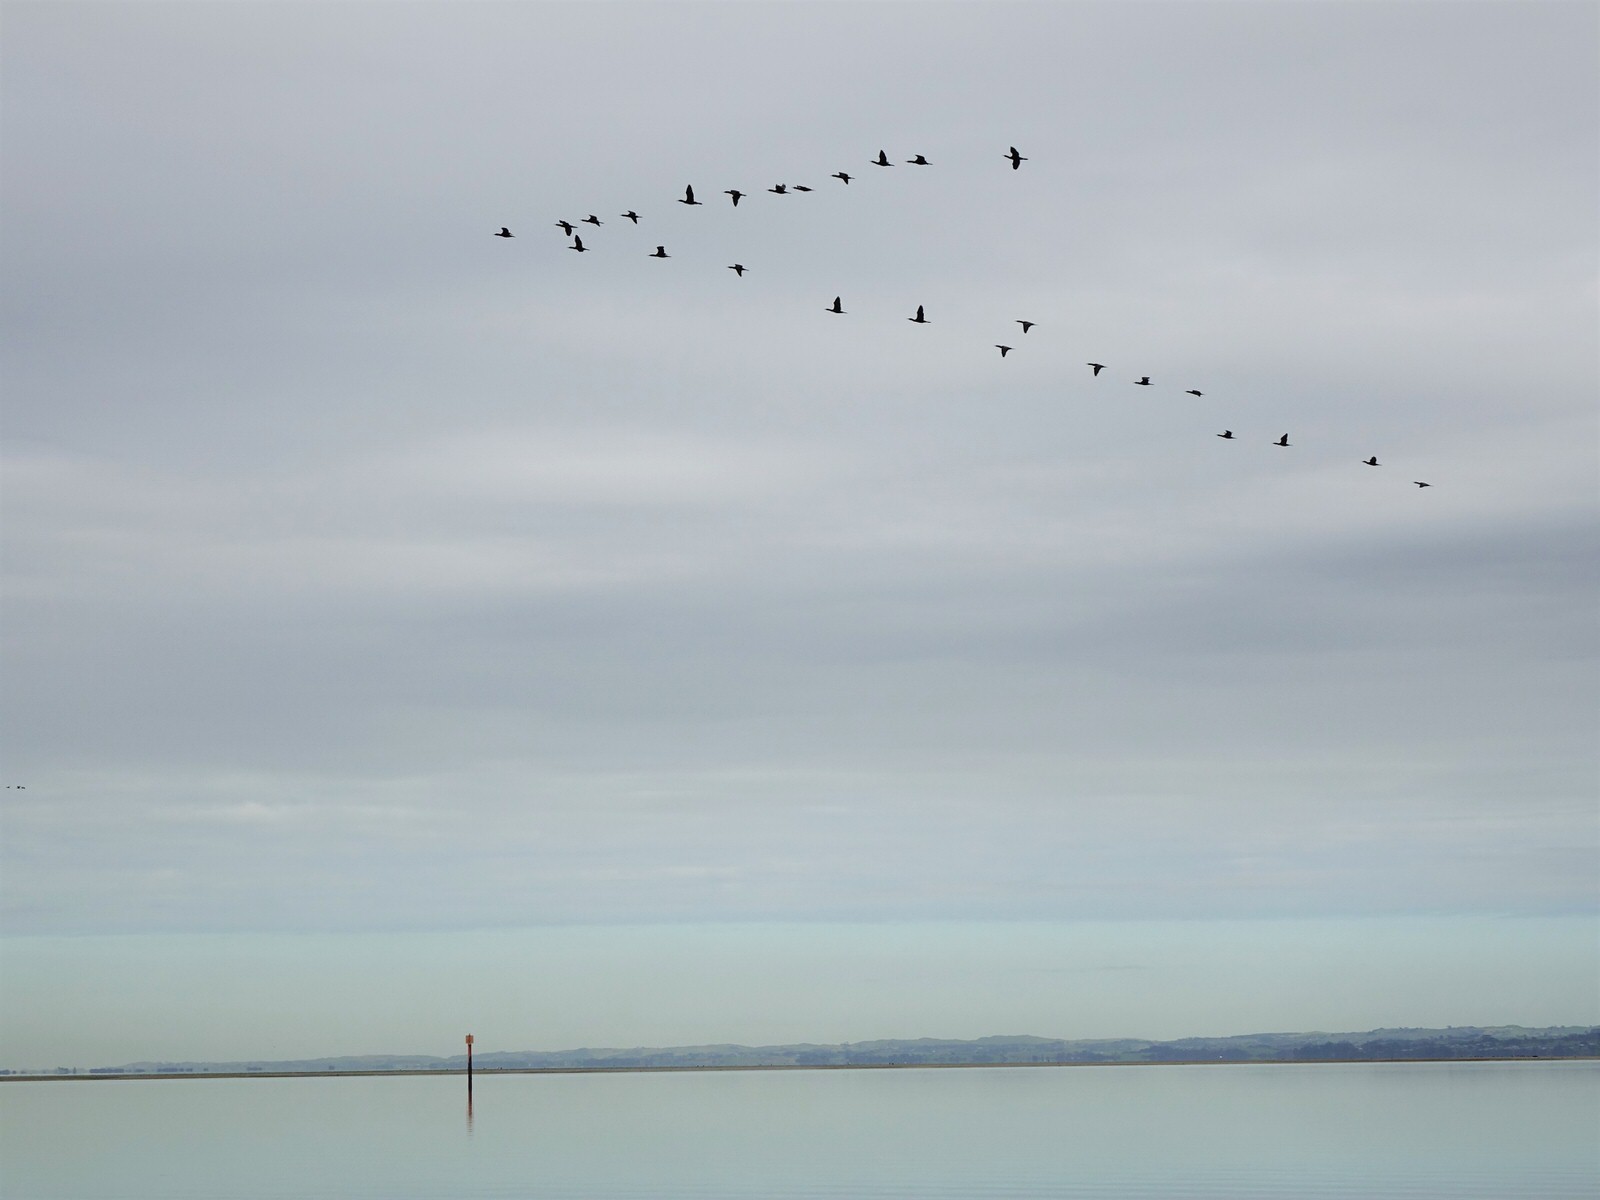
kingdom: Animalia
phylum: Chordata
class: Aves
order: Suliformes
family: Phalacrocoracidae
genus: Phalacrocorax
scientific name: Phalacrocorax sulcirostris
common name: Little black cormorant
